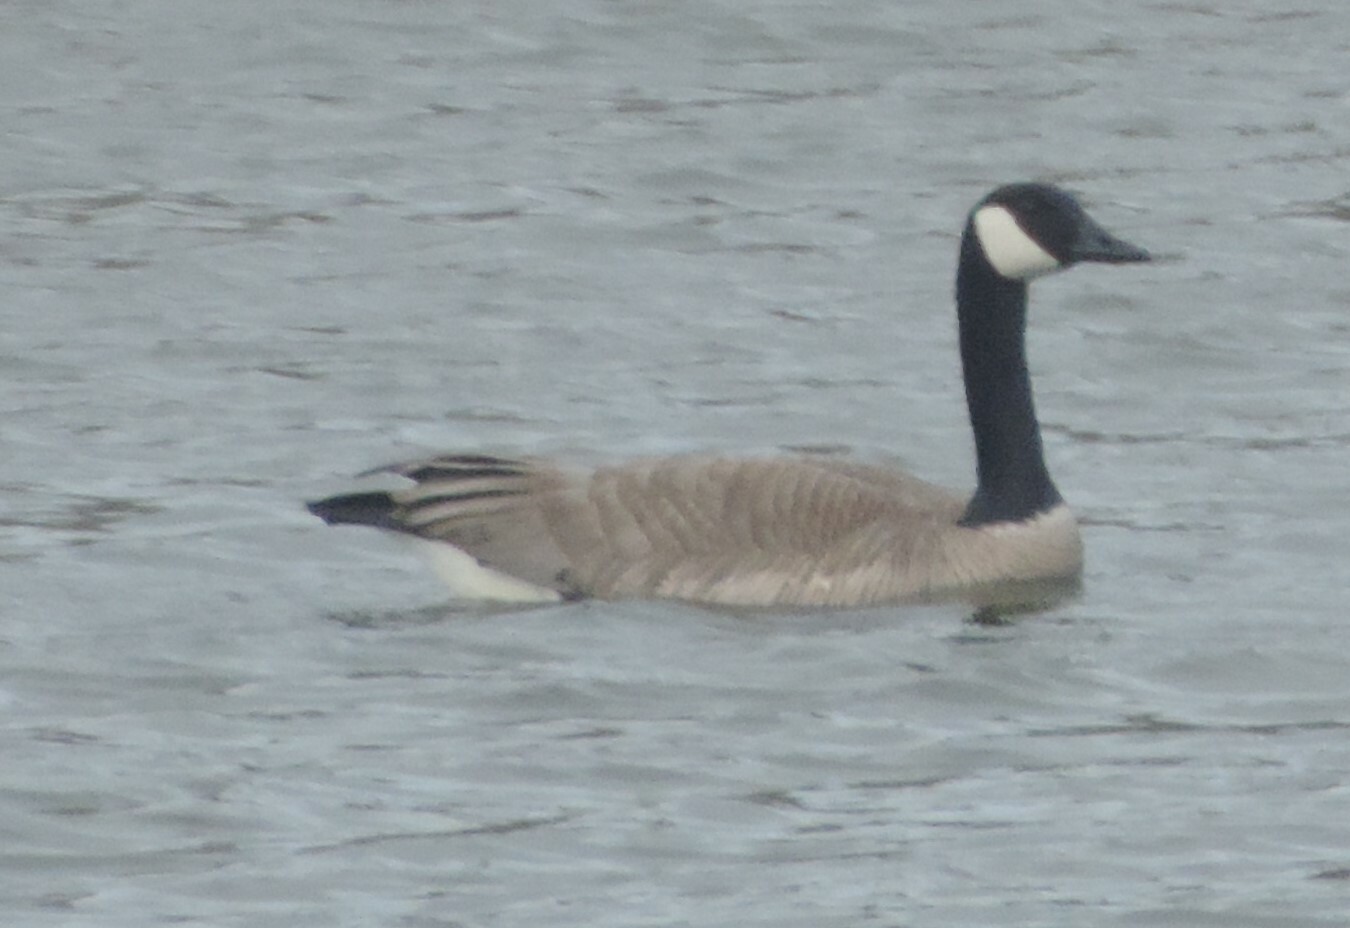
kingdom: Animalia
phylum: Chordata
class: Aves
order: Anseriformes
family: Anatidae
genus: Branta
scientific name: Branta canadensis
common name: Canada goose
